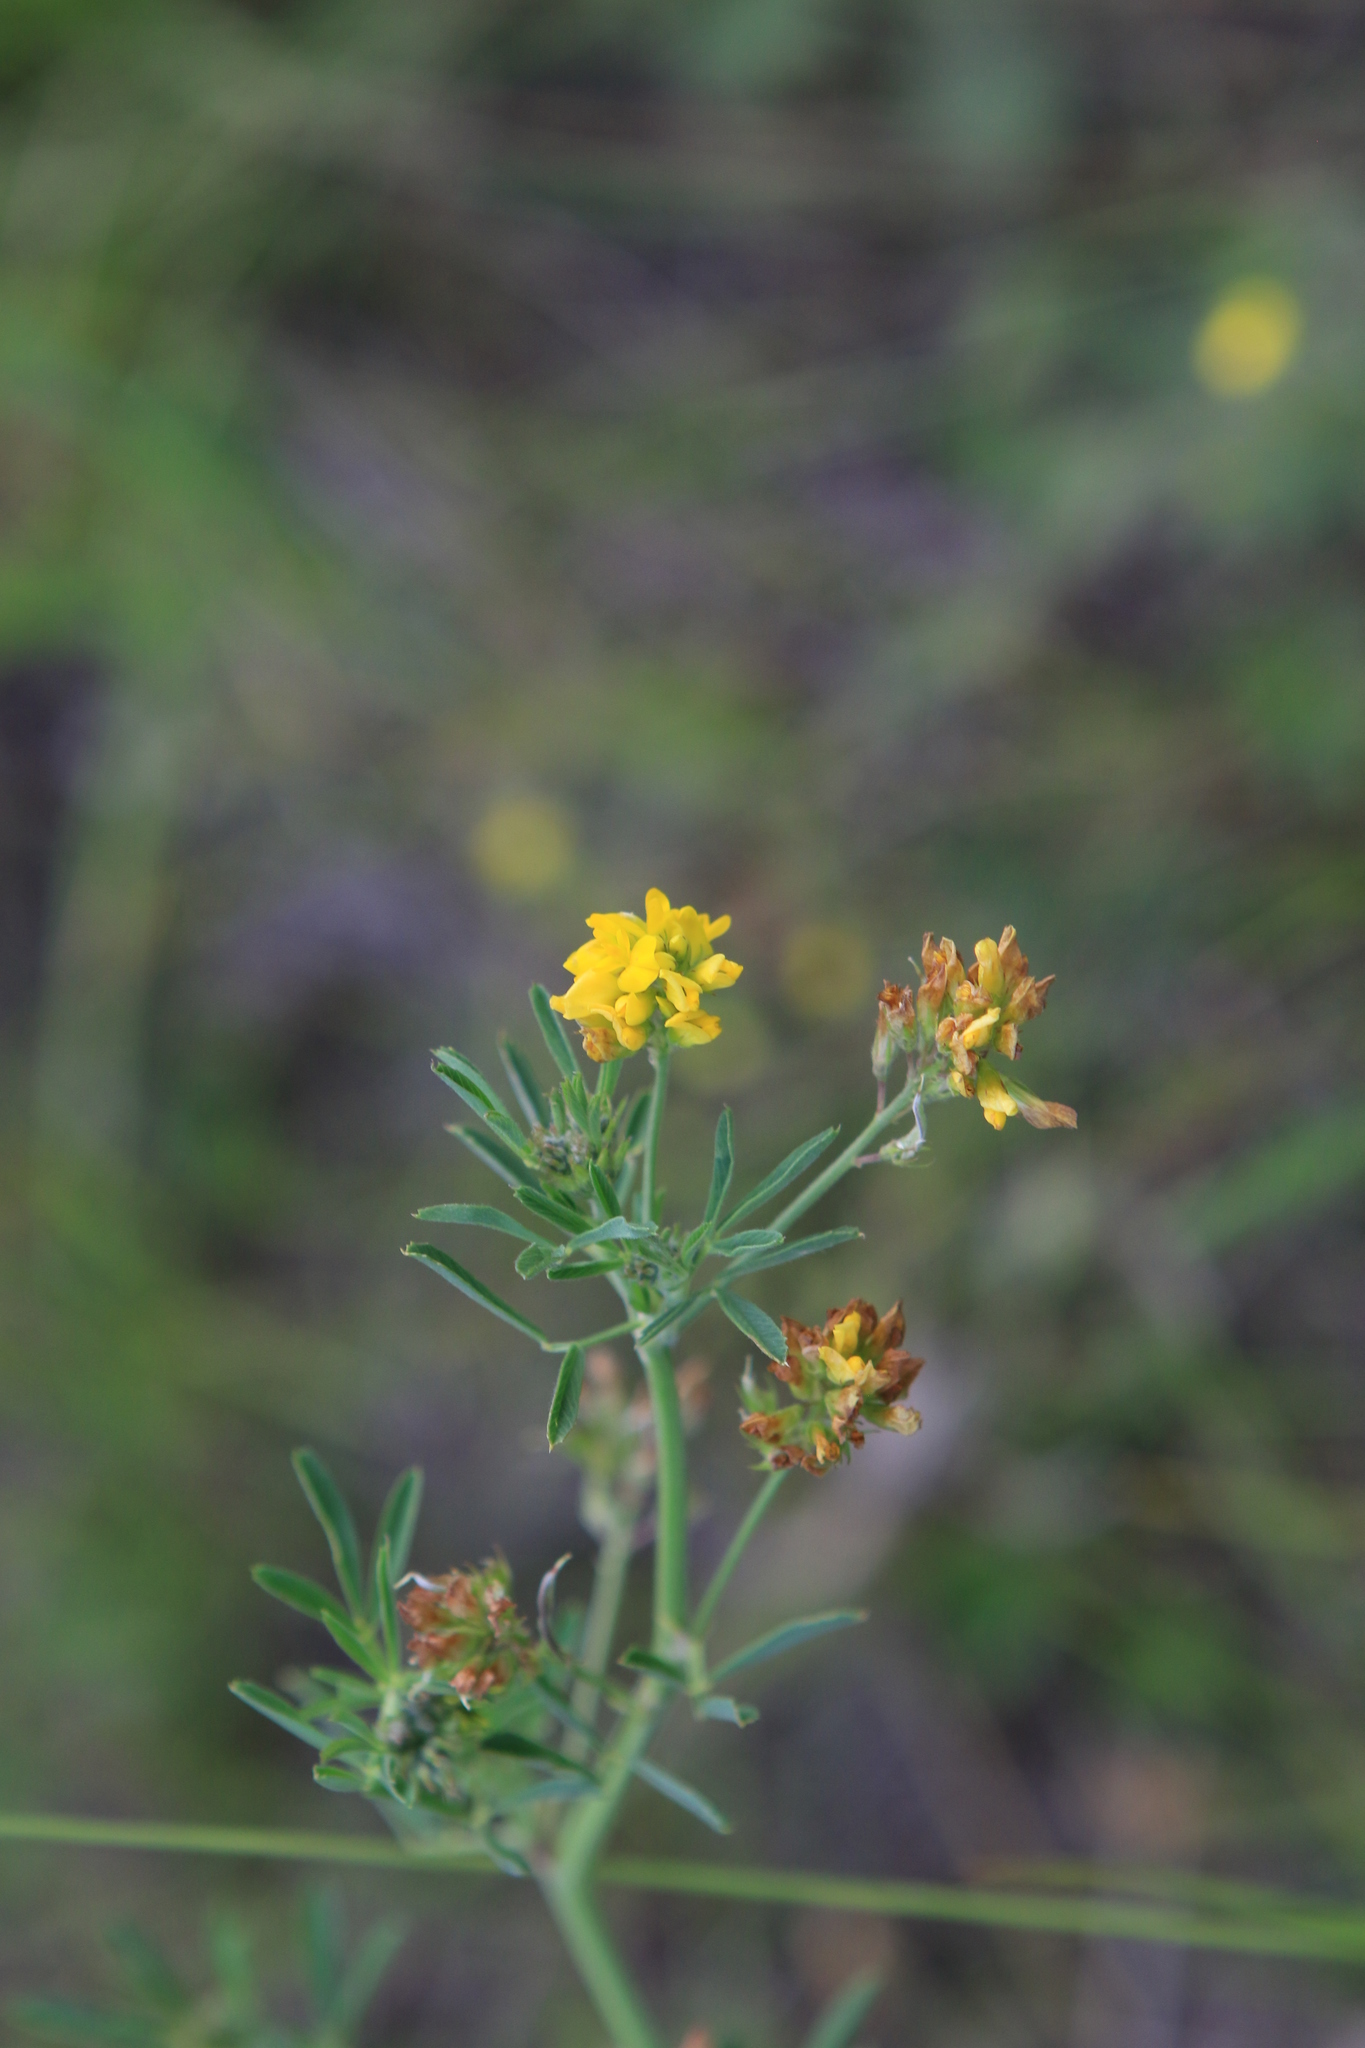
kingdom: Plantae
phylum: Tracheophyta
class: Magnoliopsida
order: Fabales
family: Fabaceae
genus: Medicago
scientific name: Medicago falcata
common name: Sickle medick
